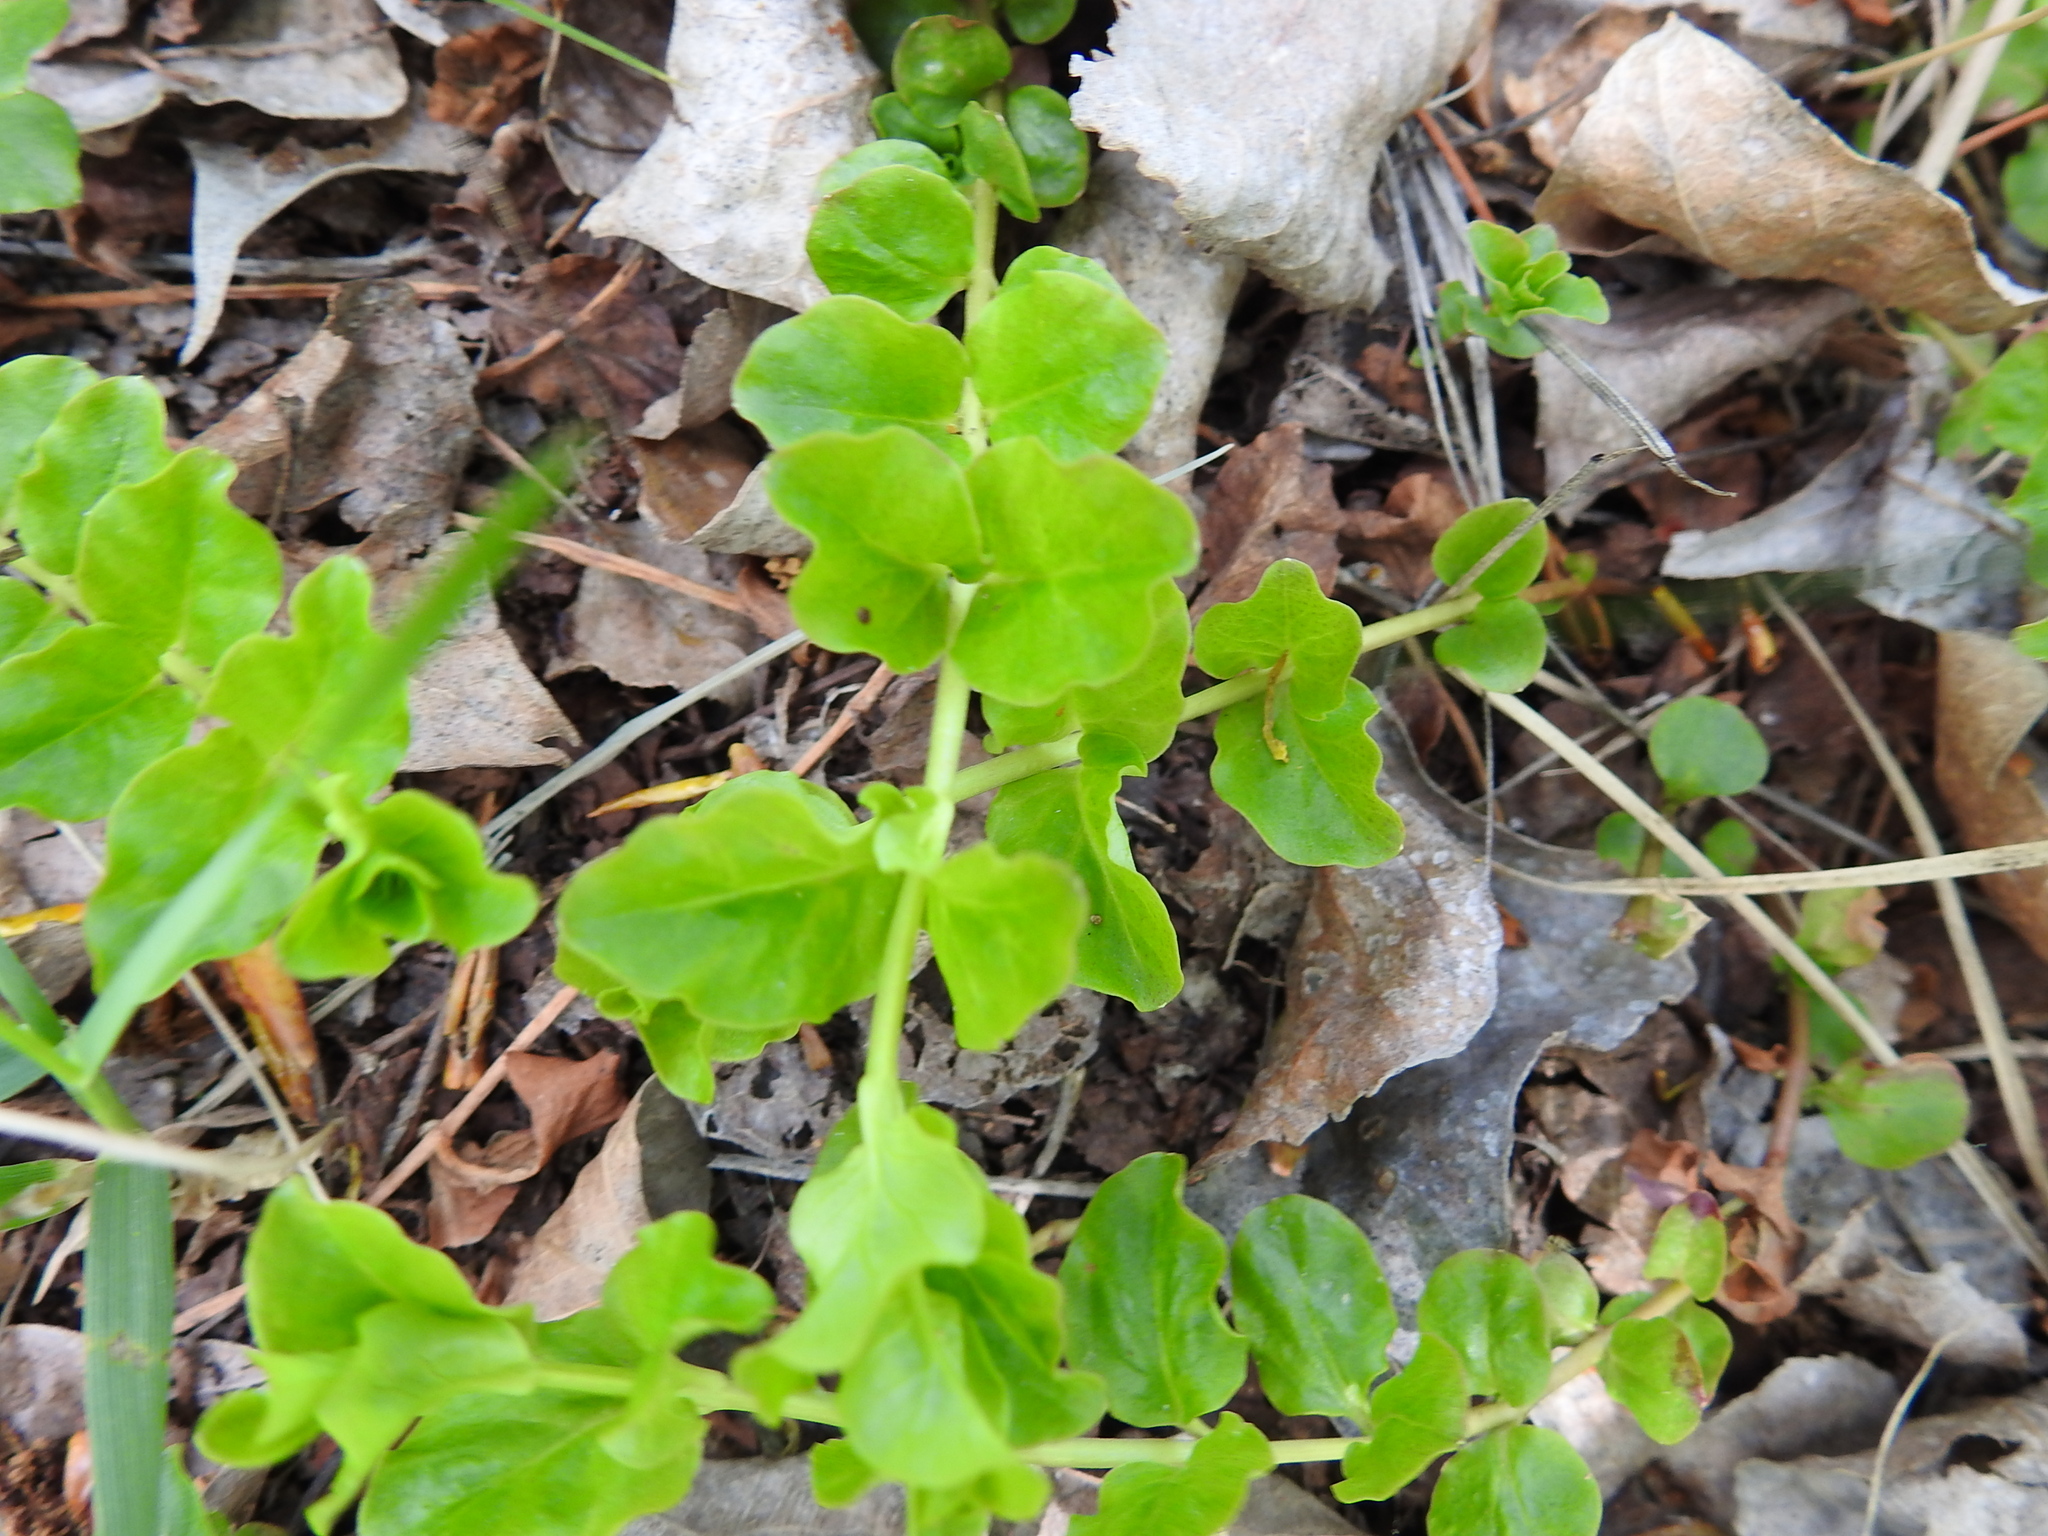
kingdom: Plantae
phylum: Tracheophyta
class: Magnoliopsida
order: Ericales
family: Primulaceae
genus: Lysimachia
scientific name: Lysimachia nummularia
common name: Moneywort
